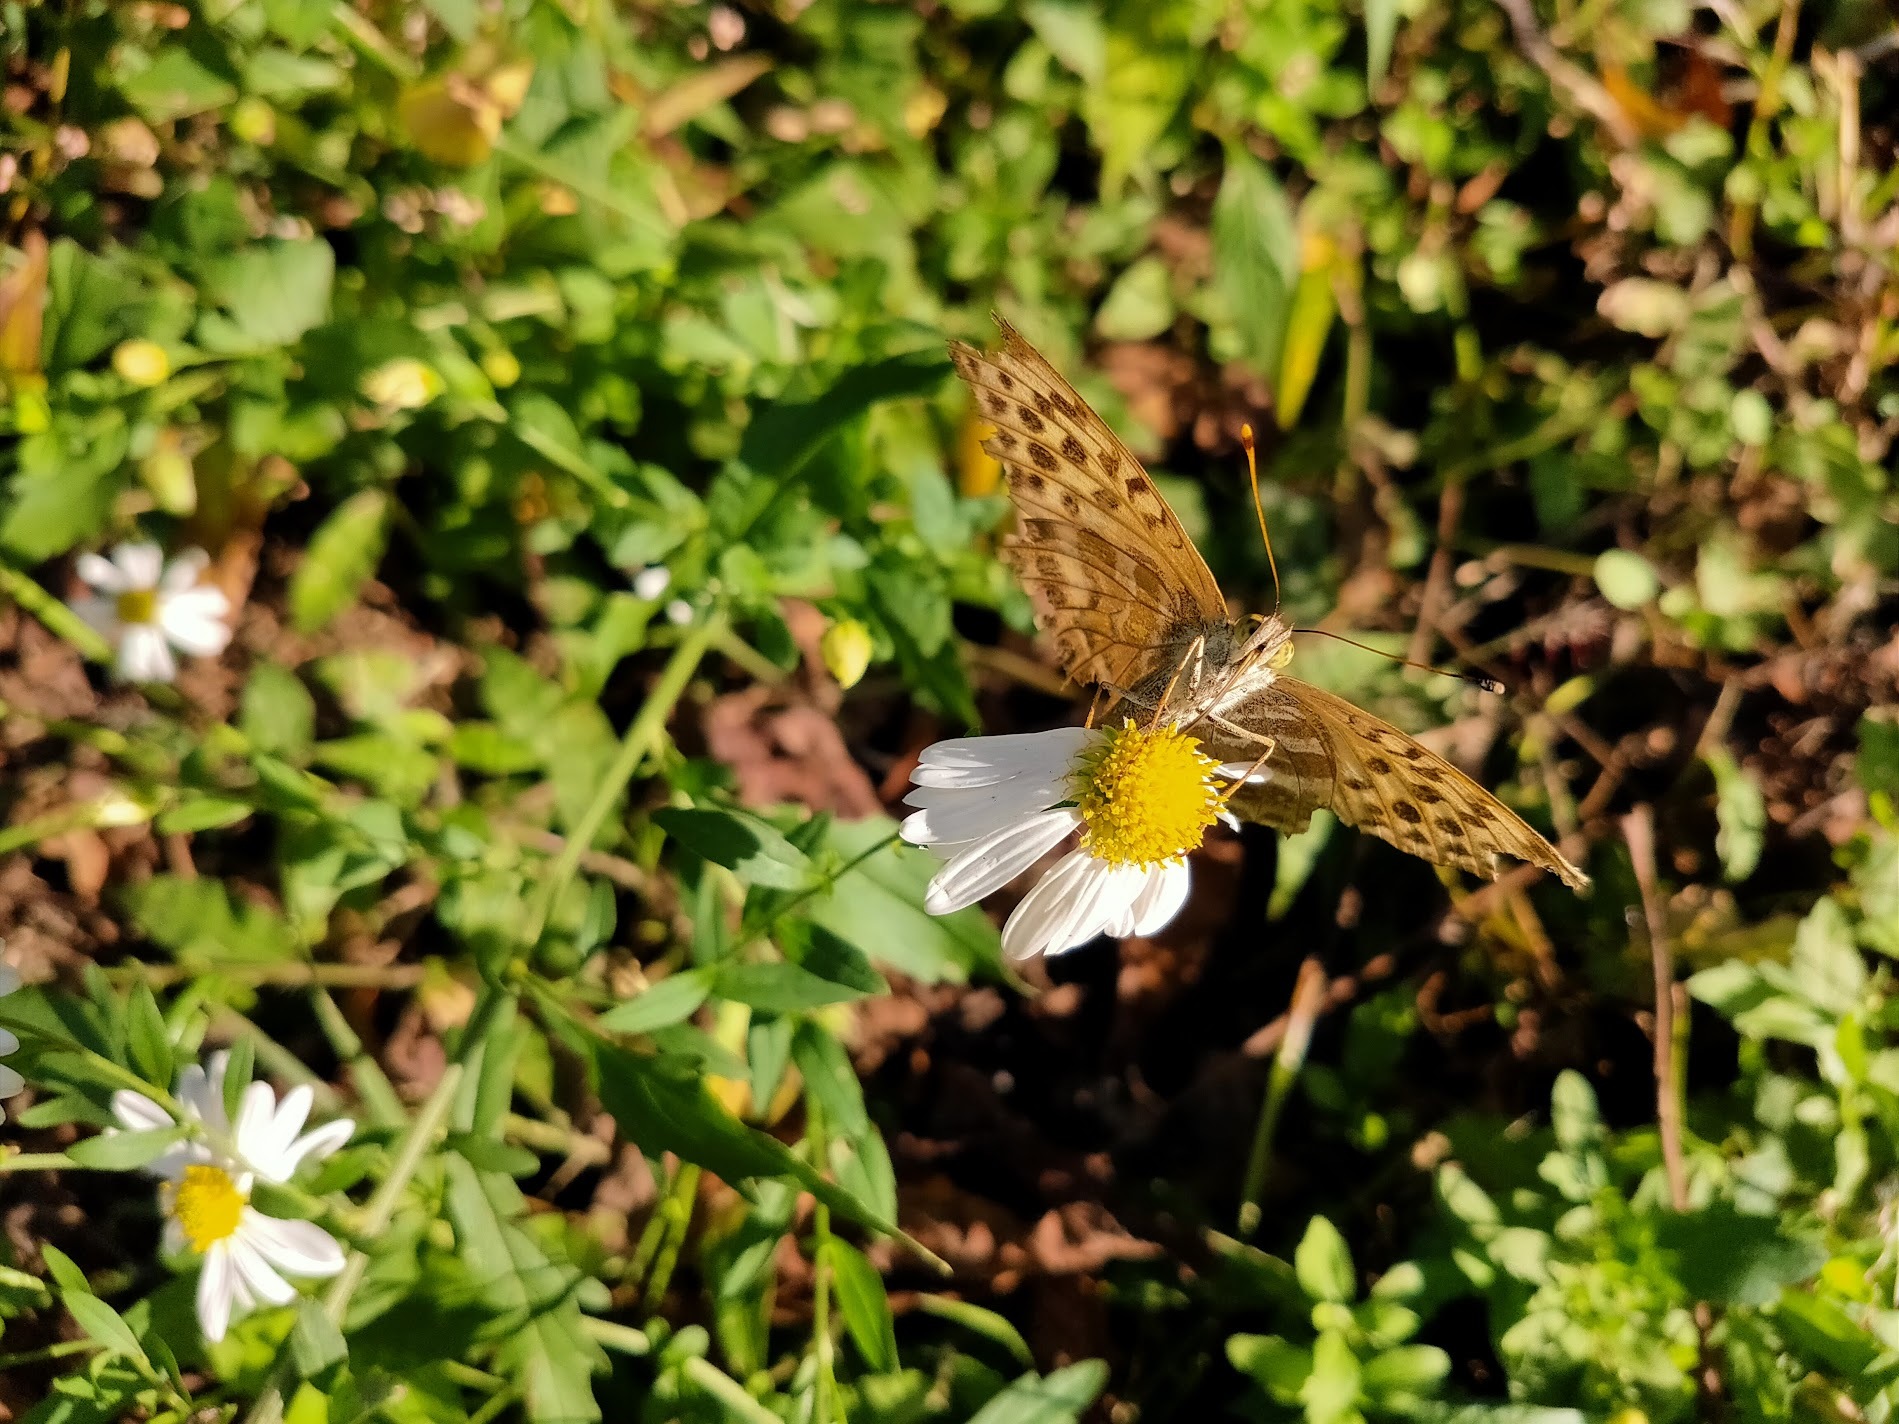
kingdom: Animalia
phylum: Arthropoda
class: Insecta
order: Lepidoptera
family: Nymphalidae
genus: Argynnis
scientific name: Argynnis paphia
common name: Silver-washed fritillary
